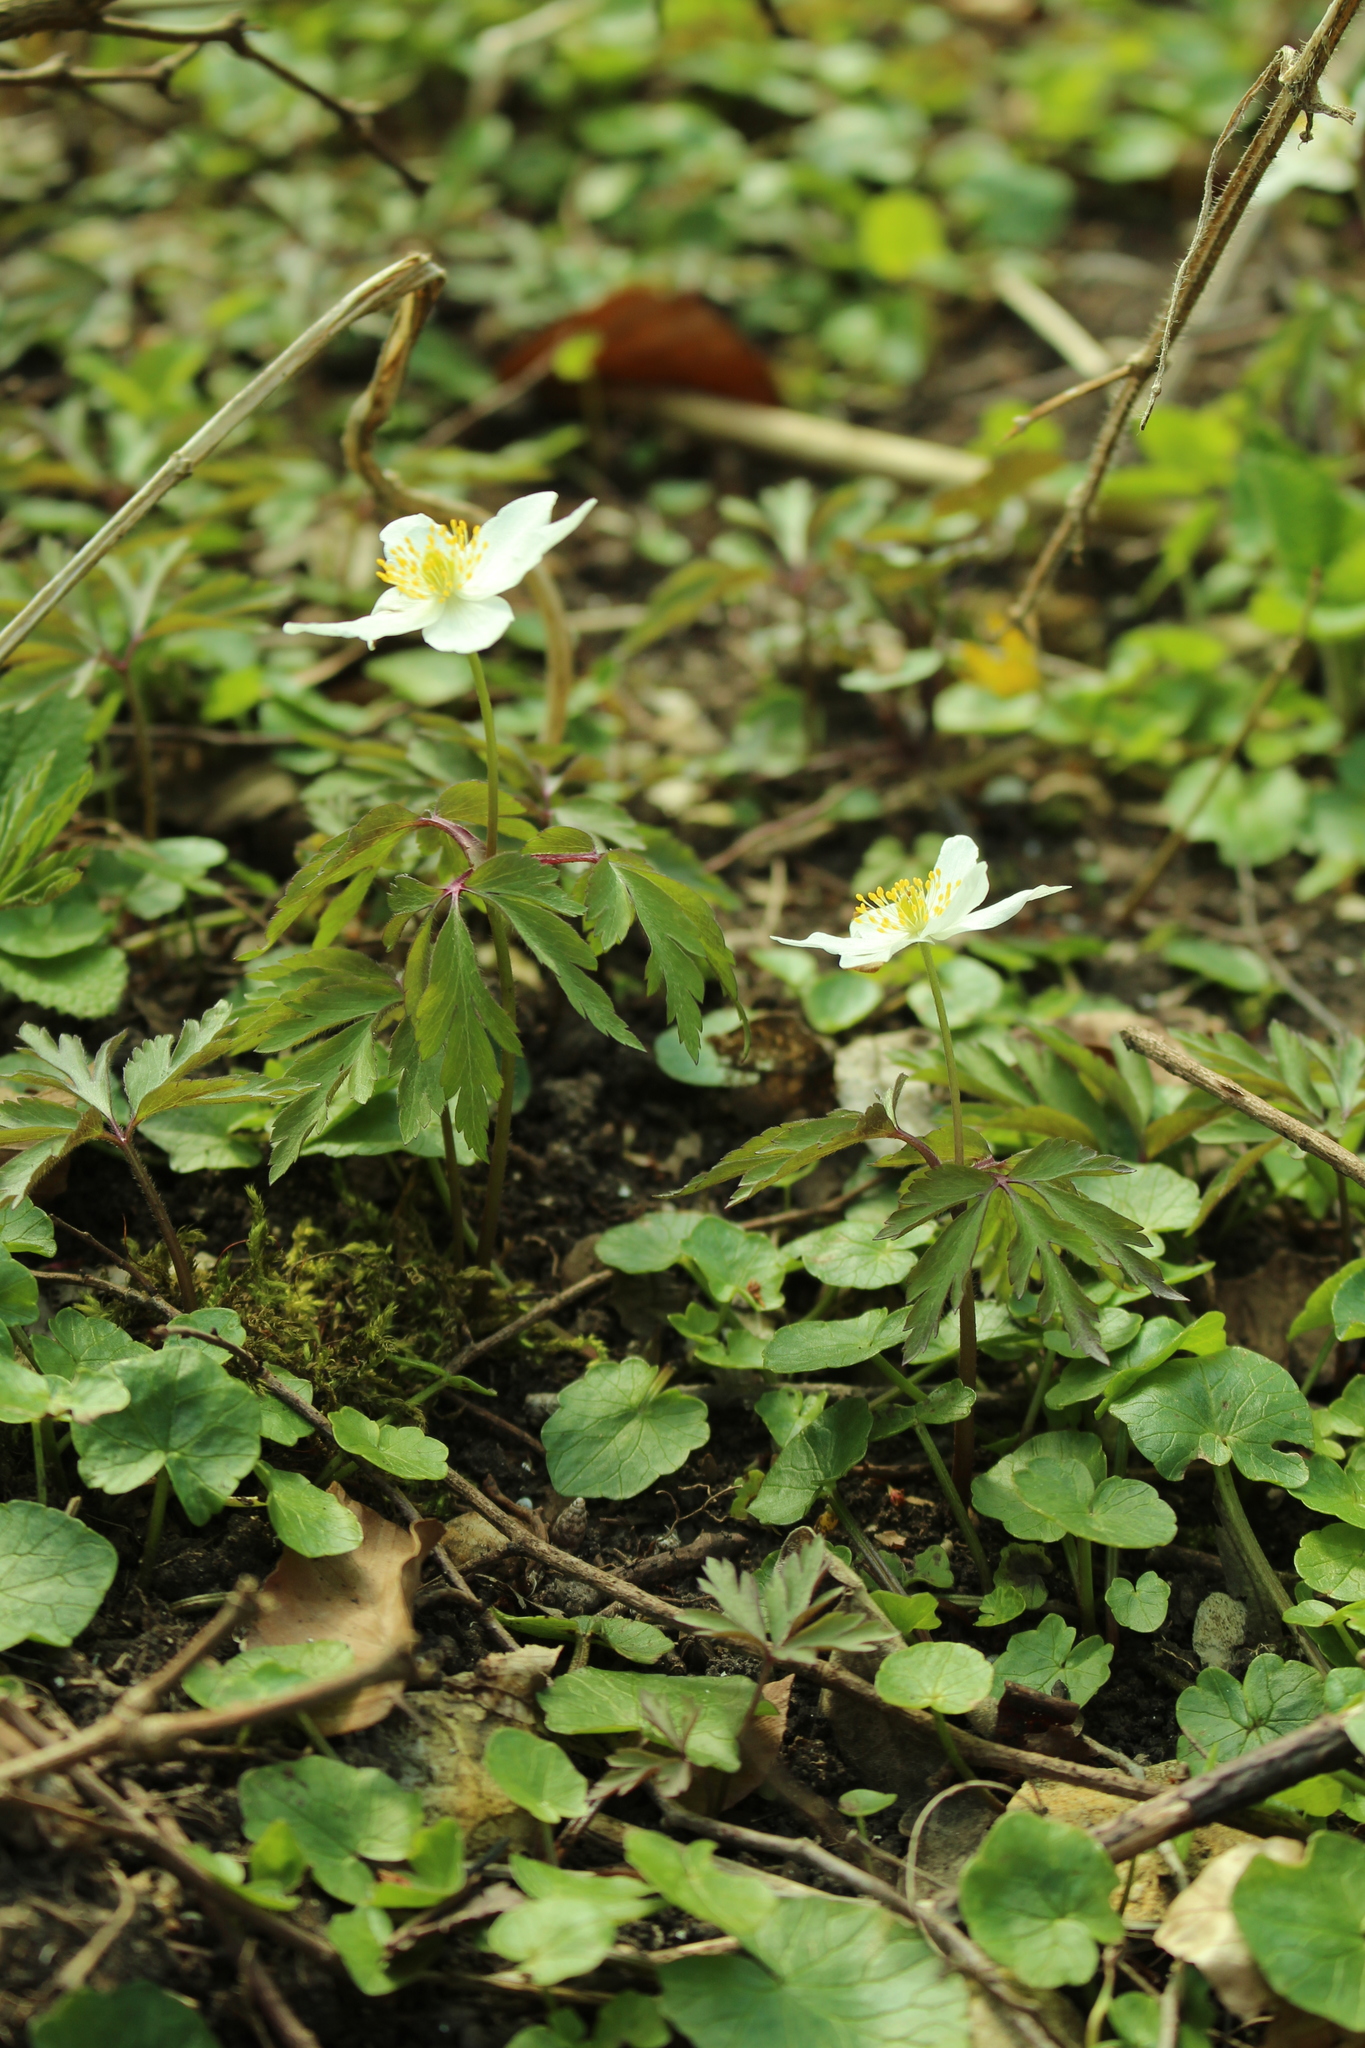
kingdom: Plantae
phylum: Tracheophyta
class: Magnoliopsida
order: Ranunculales
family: Ranunculaceae
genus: Anemone
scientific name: Anemone nemorosa
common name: Wood anemone
